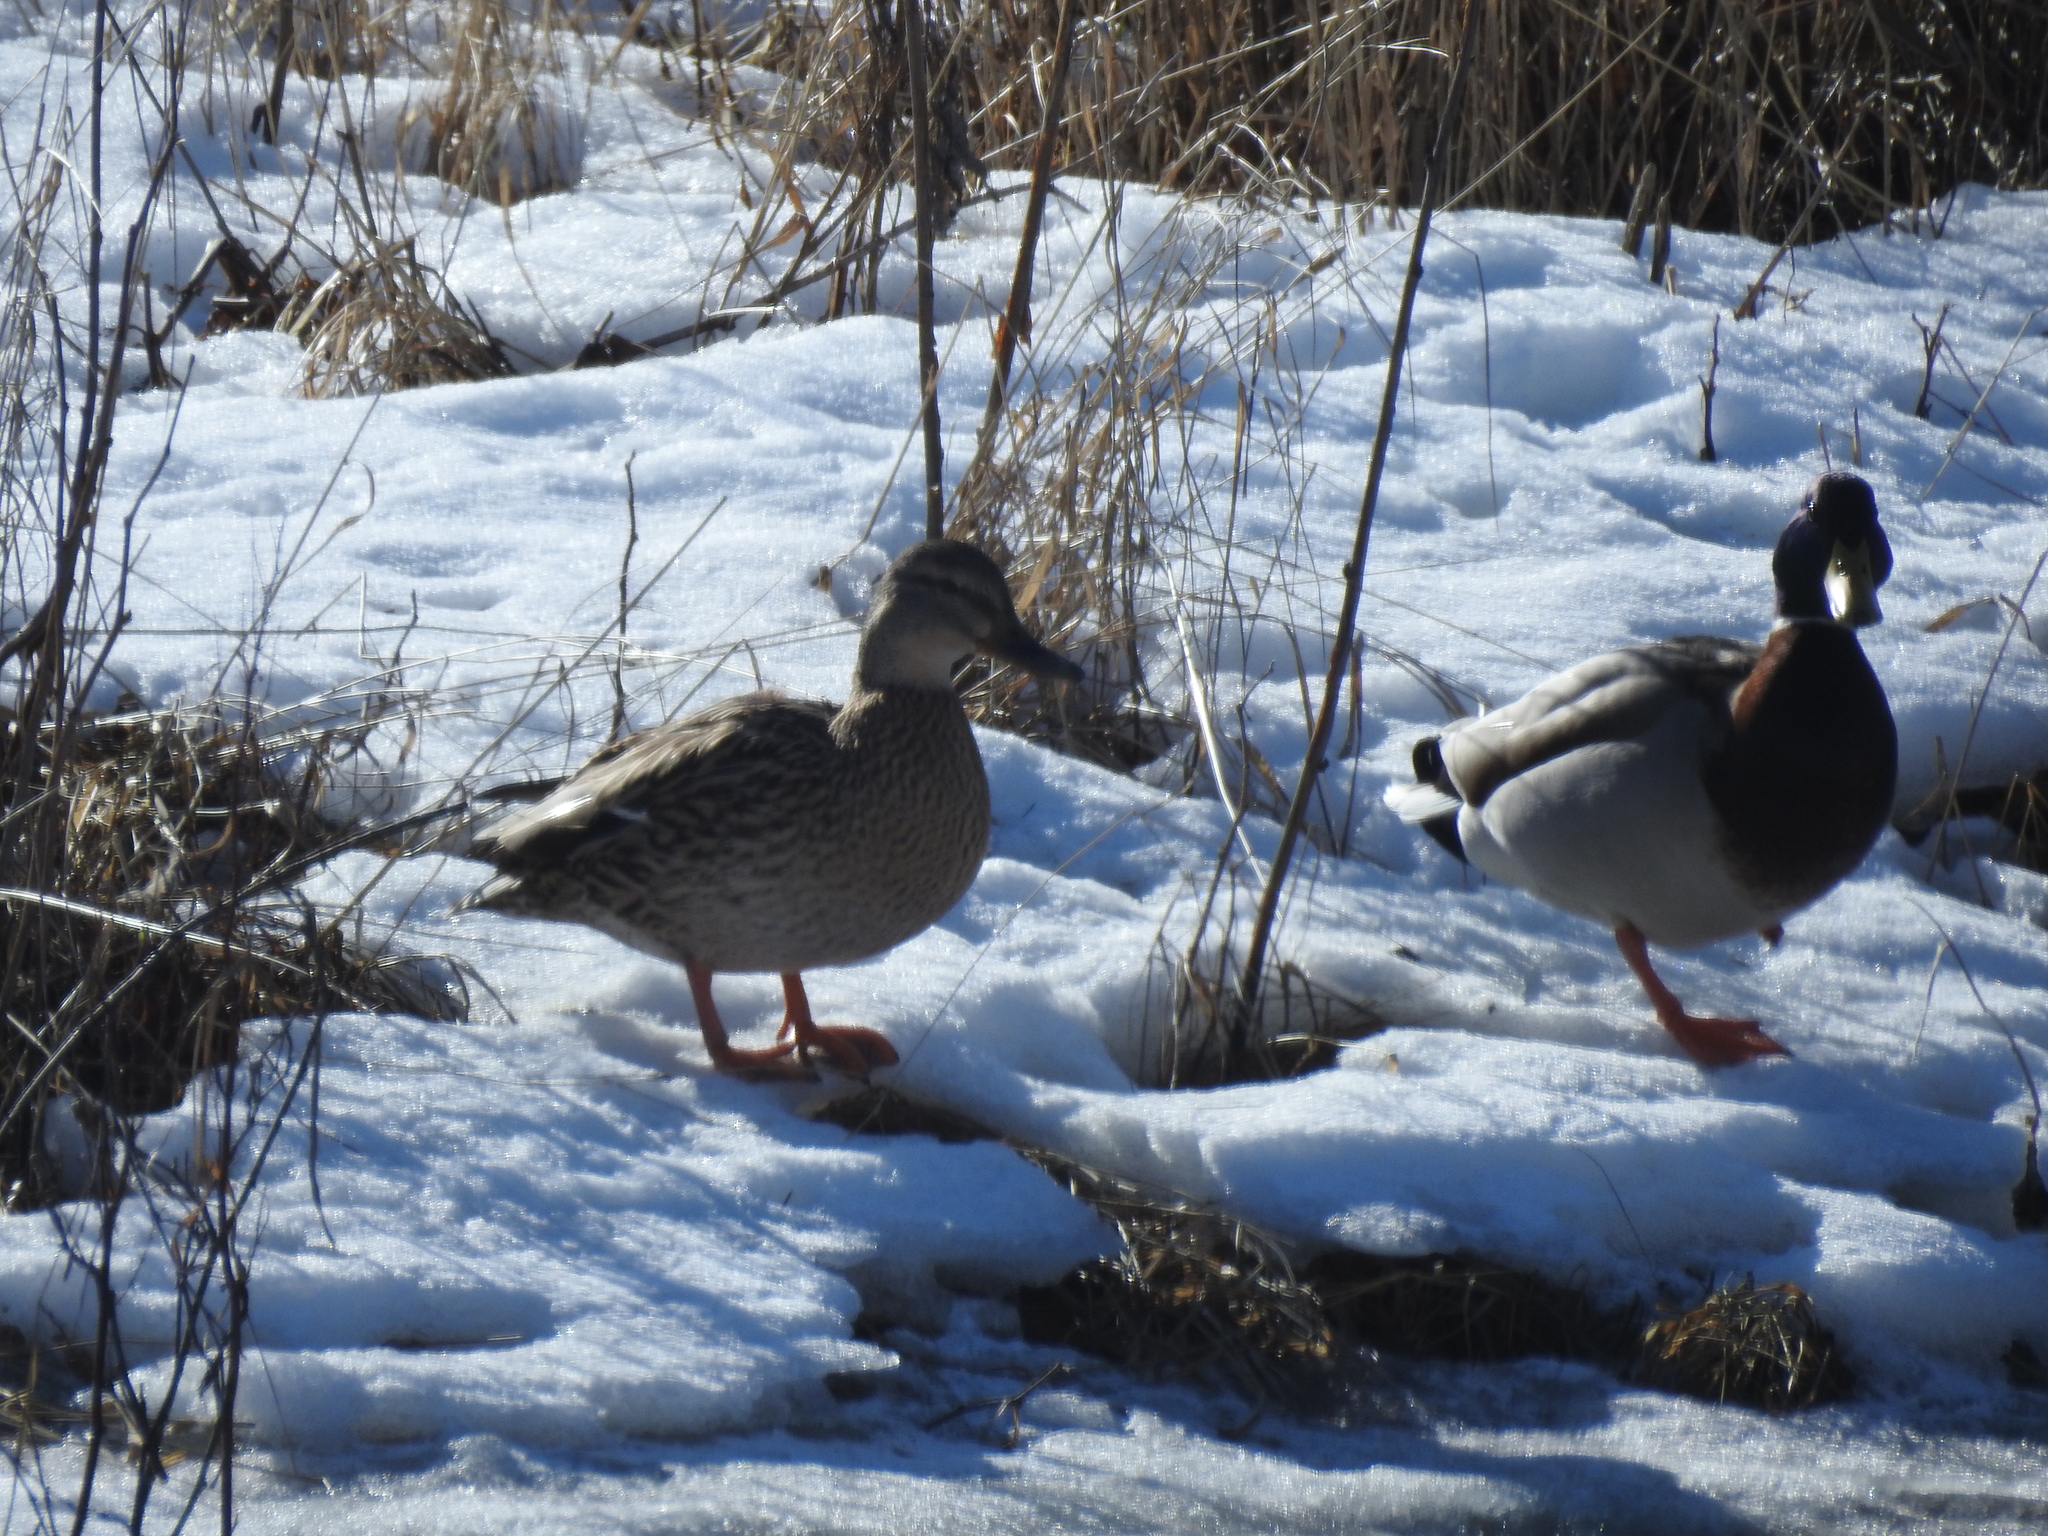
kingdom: Animalia
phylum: Chordata
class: Aves
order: Anseriformes
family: Anatidae
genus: Anas
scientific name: Anas platyrhynchos
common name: Mallard
